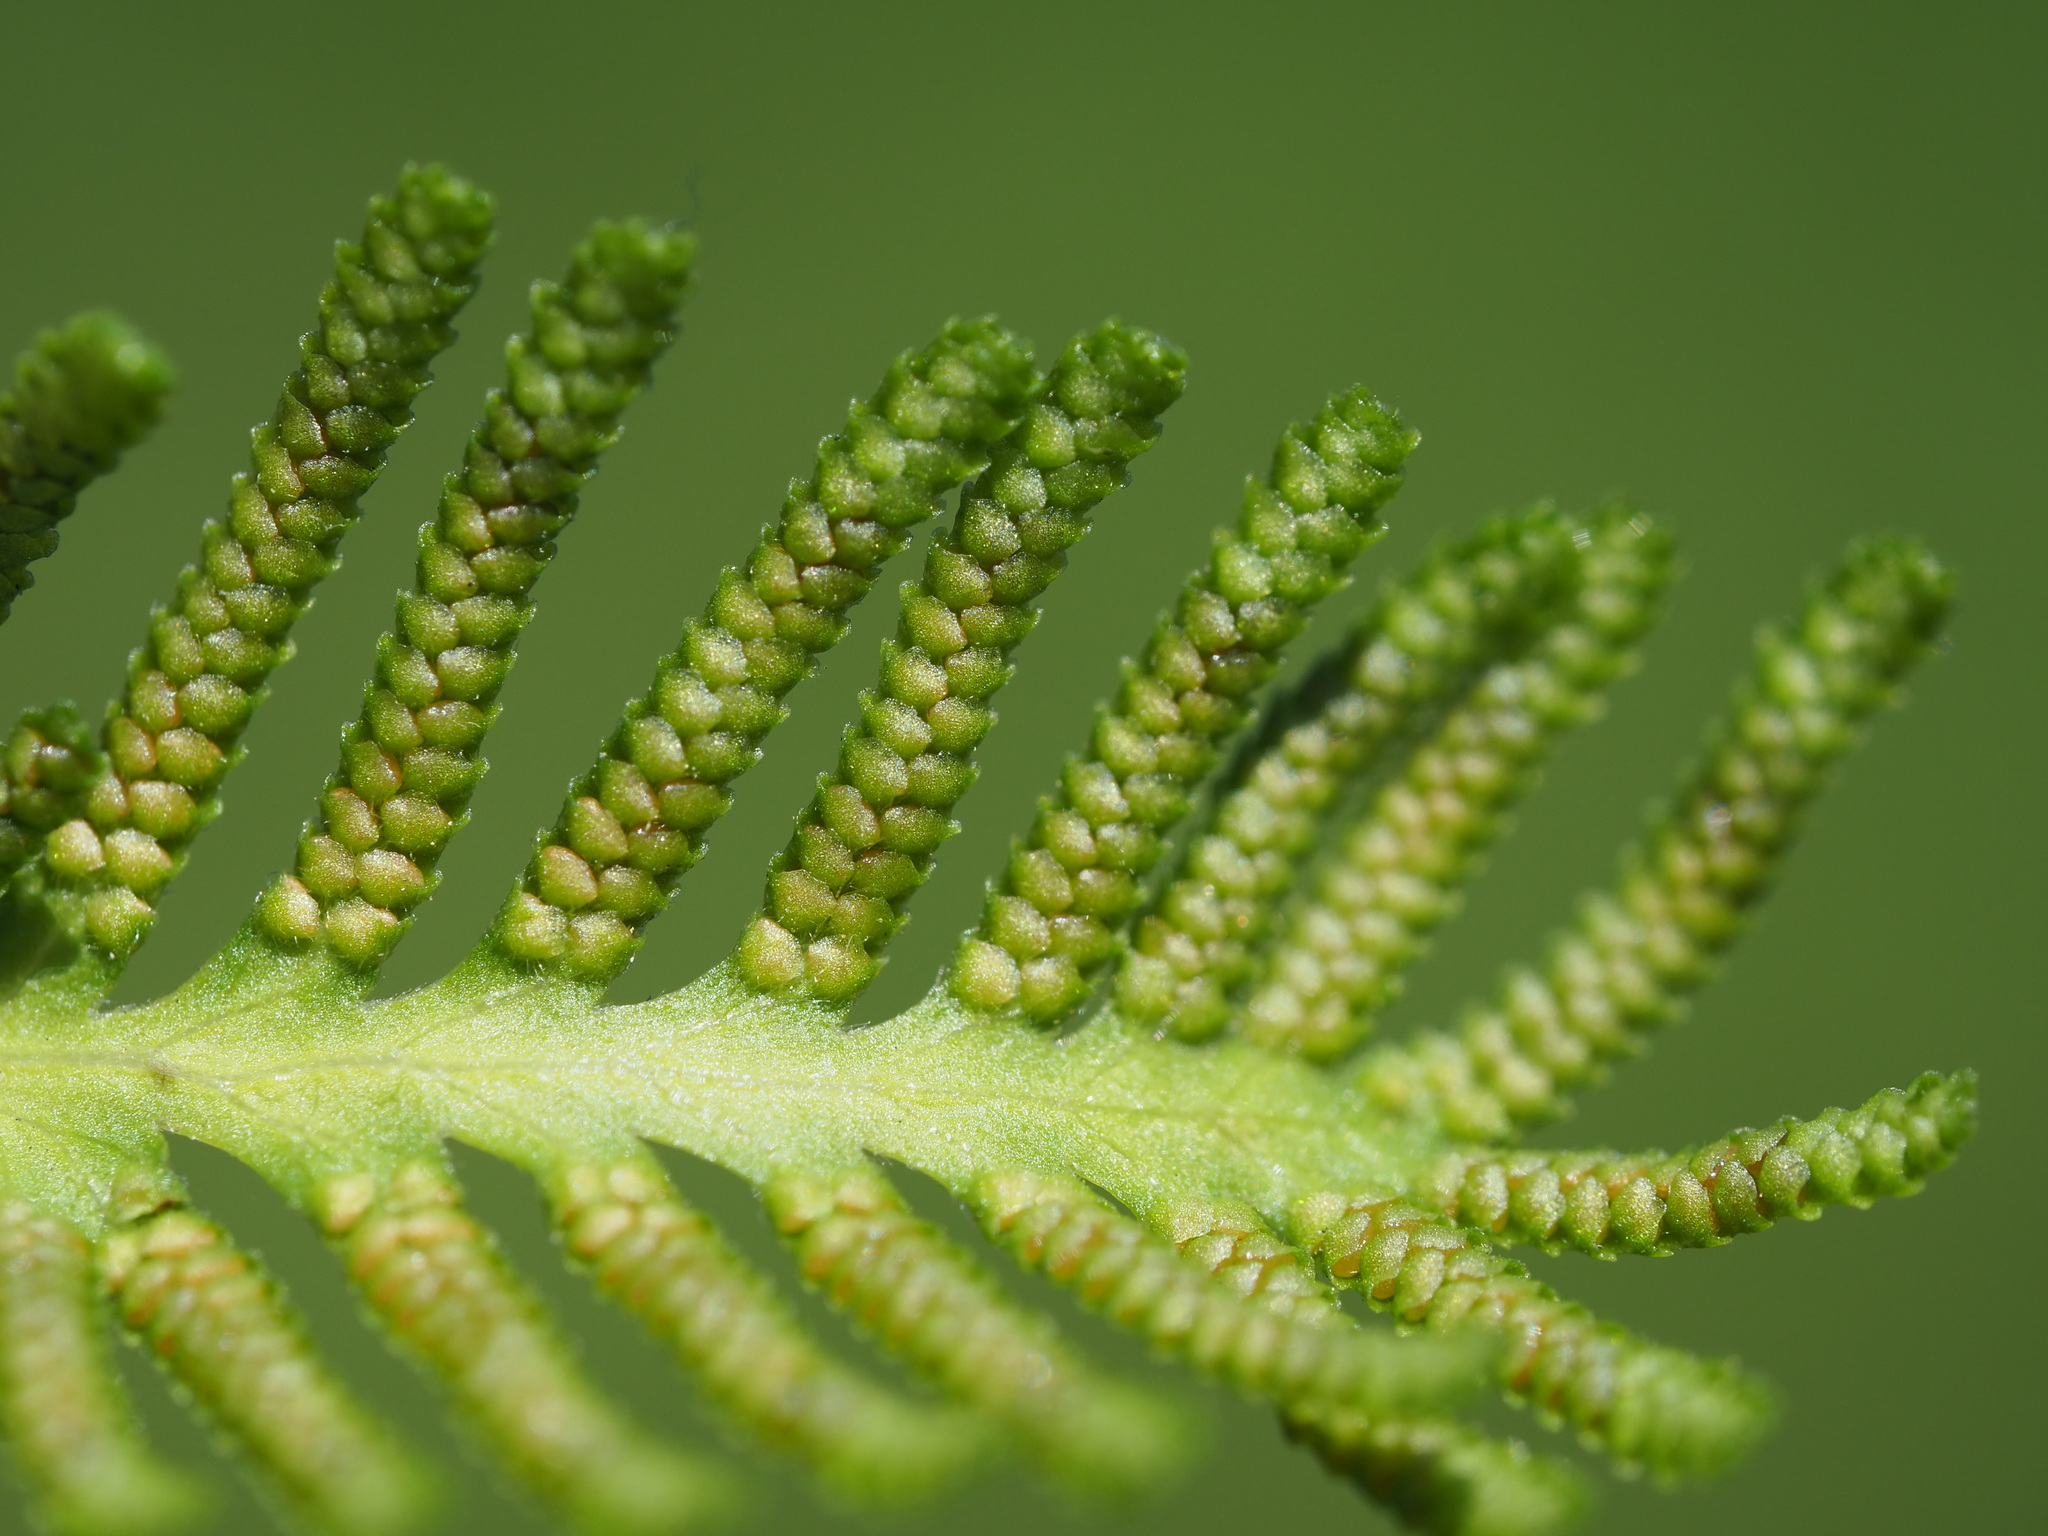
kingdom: Plantae
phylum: Tracheophyta
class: Polypodiopsida
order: Schizaeales
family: Lygodiaceae
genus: Lygodium
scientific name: Lygodium japonicum
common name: Japanese climbing fern
